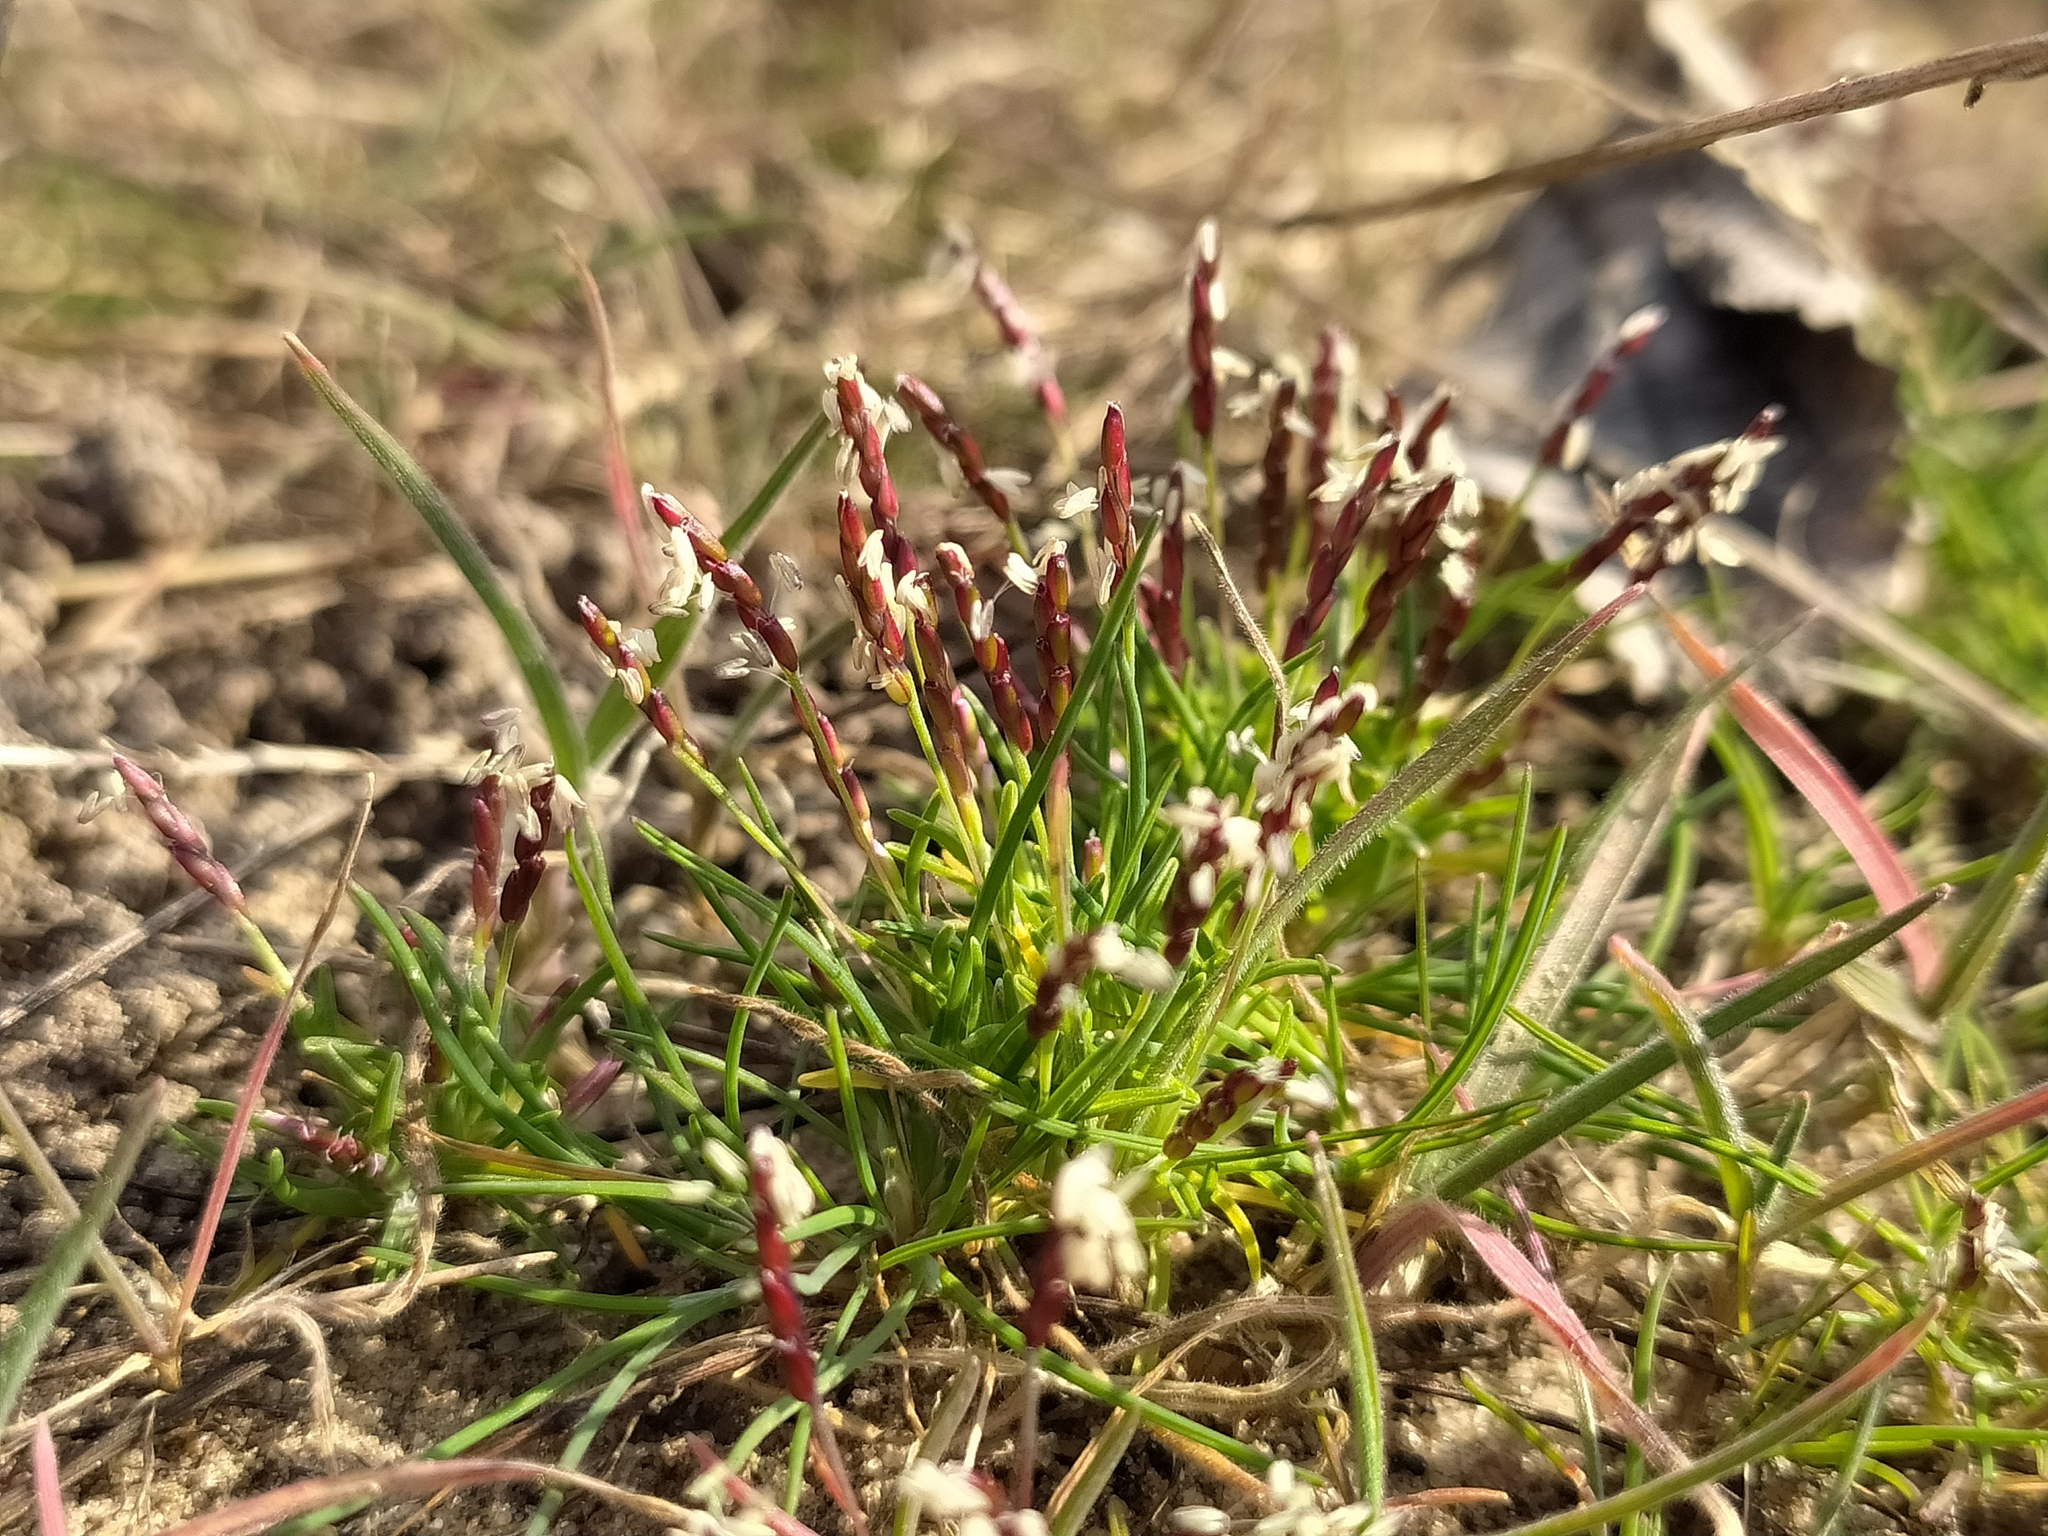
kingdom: Plantae
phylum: Tracheophyta
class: Liliopsida
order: Poales
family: Poaceae
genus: Mibora
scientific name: Mibora minima
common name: Early sand-grass
